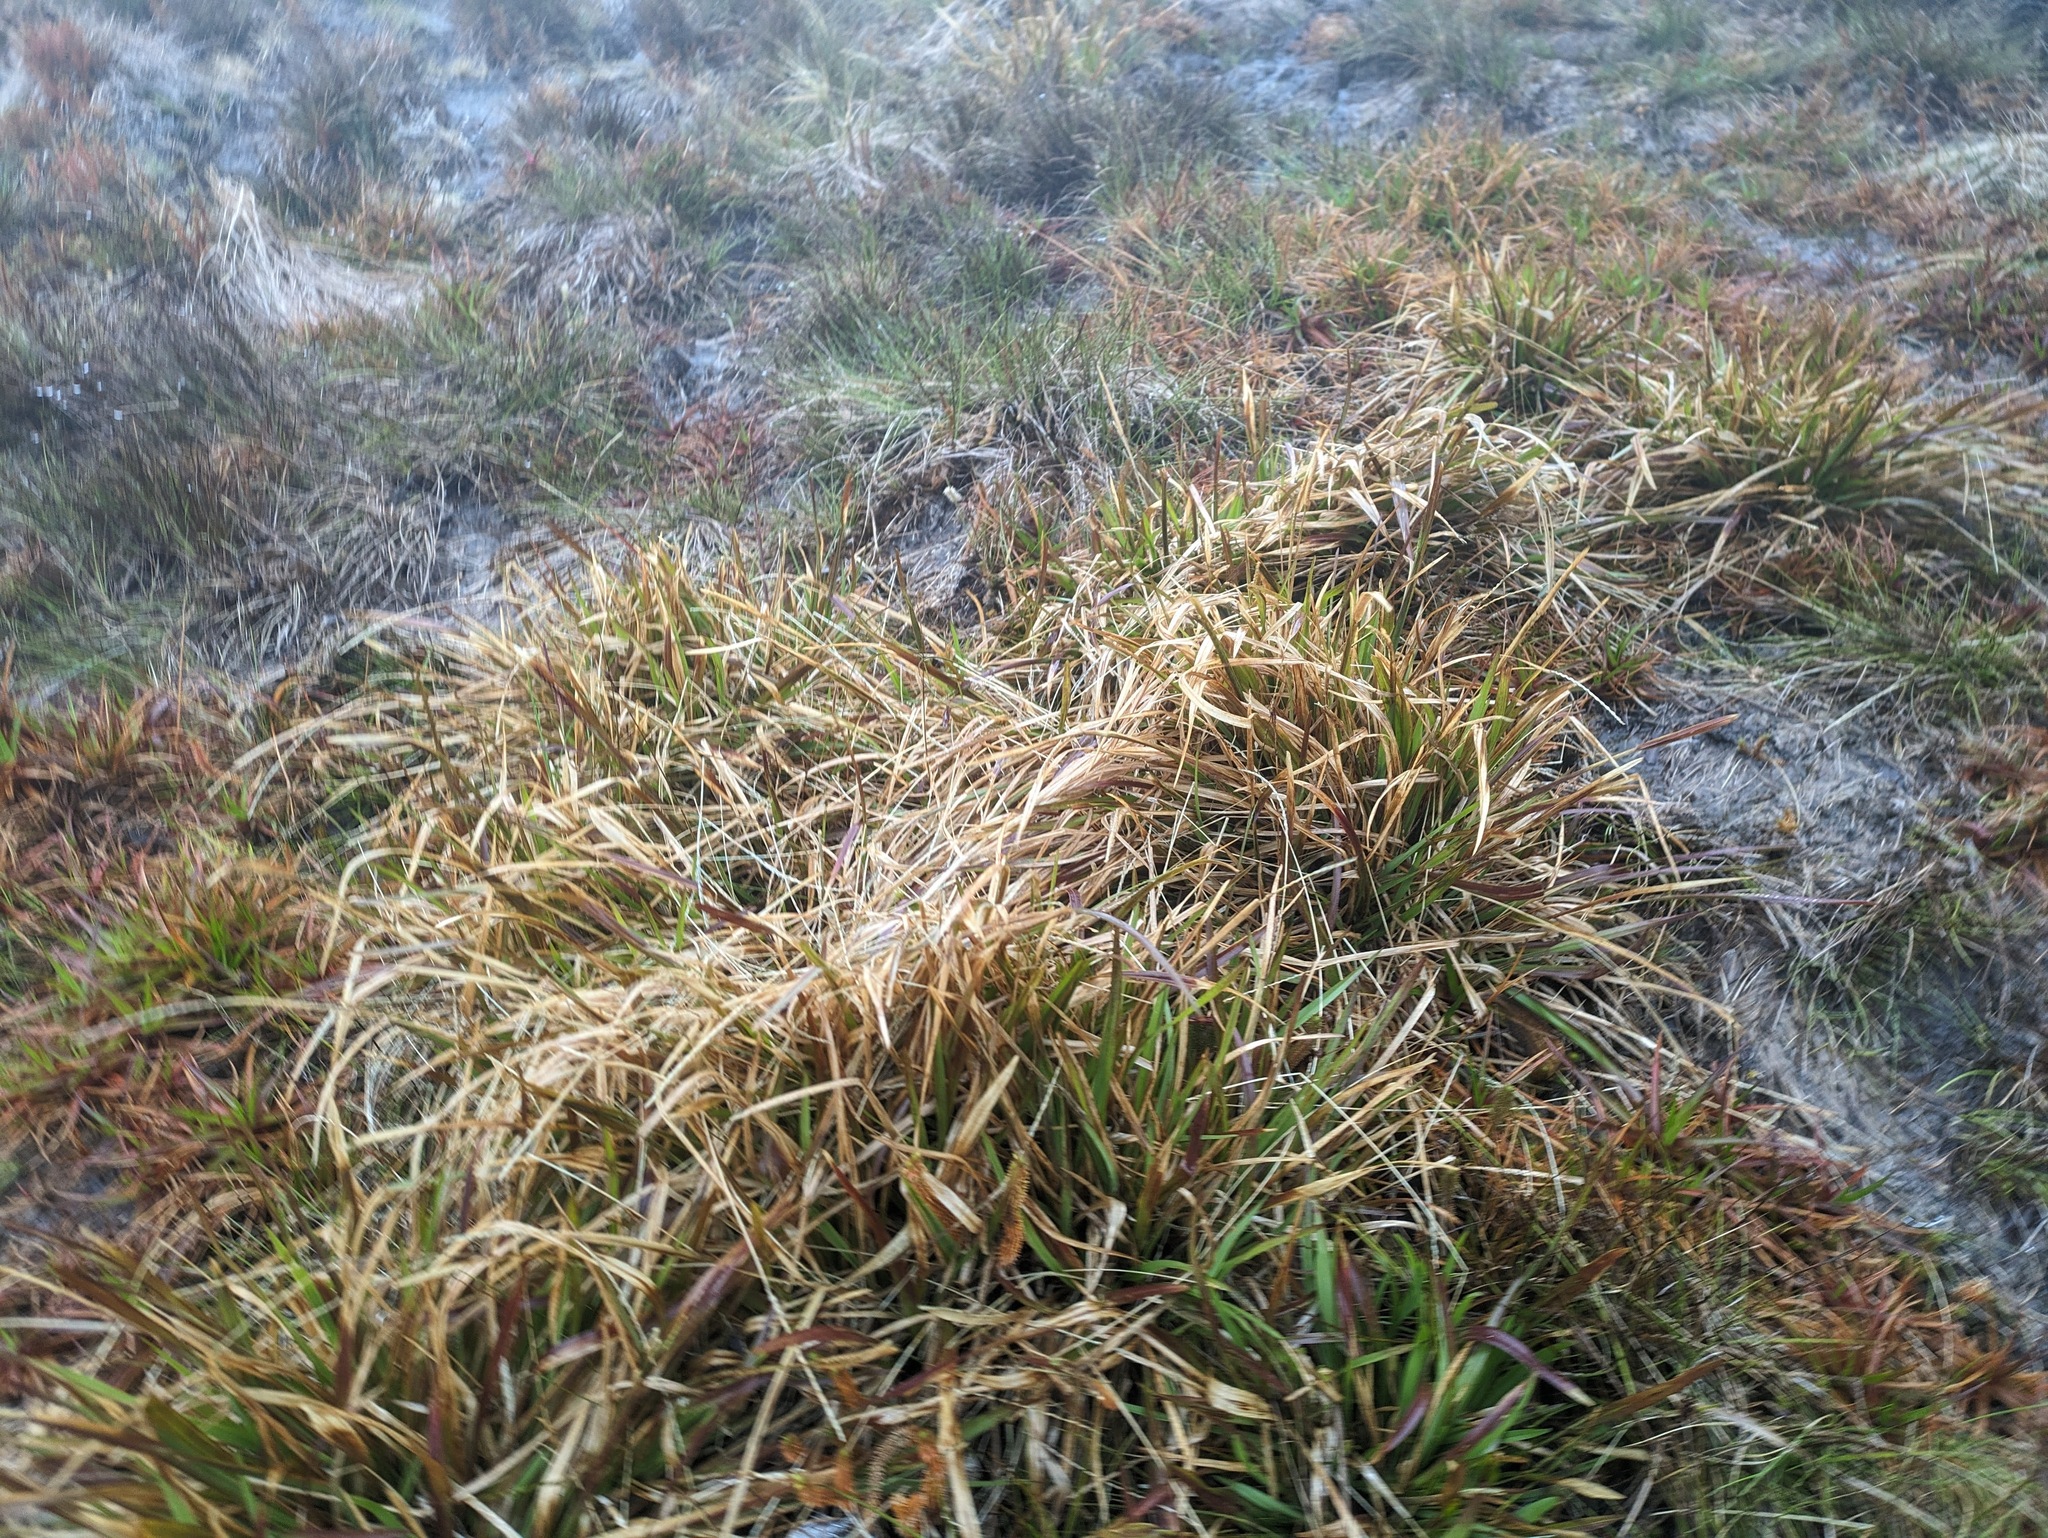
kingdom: Plantae
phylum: Tracheophyta
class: Liliopsida
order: Poales
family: Poaceae
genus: Axonopus
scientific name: Axonopus fissifolius
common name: Common carpetgrass
